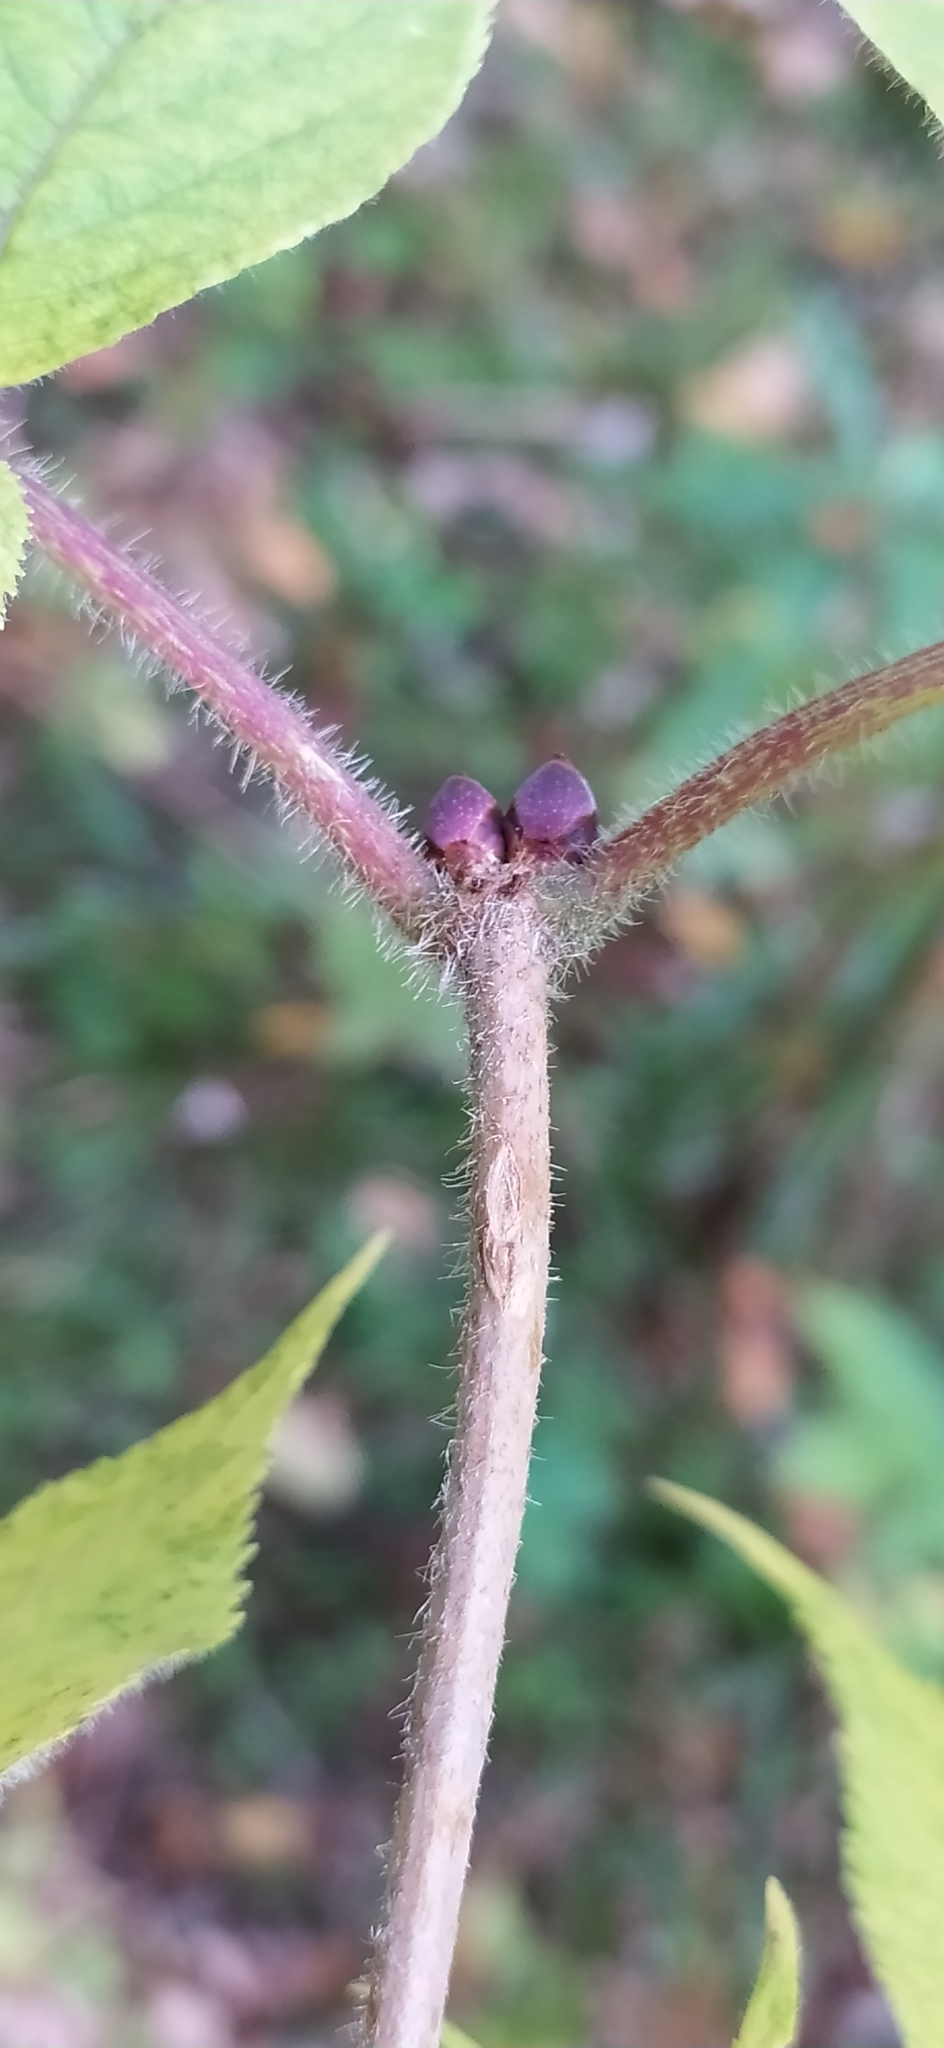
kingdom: Plantae
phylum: Tracheophyta
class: Magnoliopsida
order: Dipsacales
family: Viburnaceae
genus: Sambucus
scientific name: Sambucus sibirica
